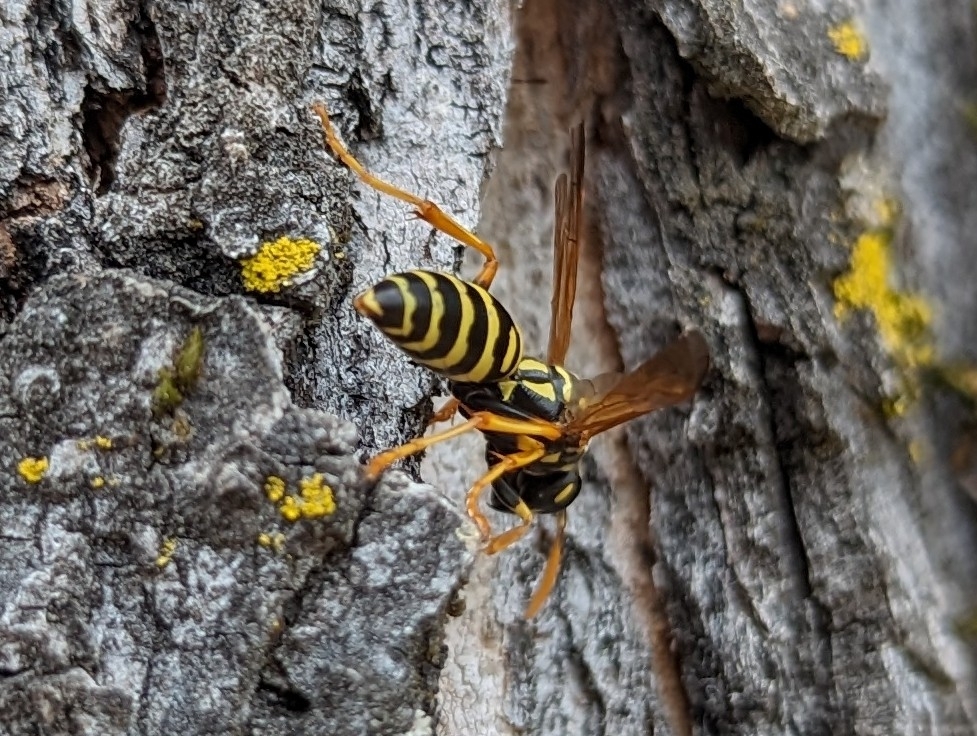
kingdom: Animalia
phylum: Arthropoda
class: Insecta
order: Hymenoptera
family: Eumenidae
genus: Polistes
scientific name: Polistes dominula
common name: Paper wasp
